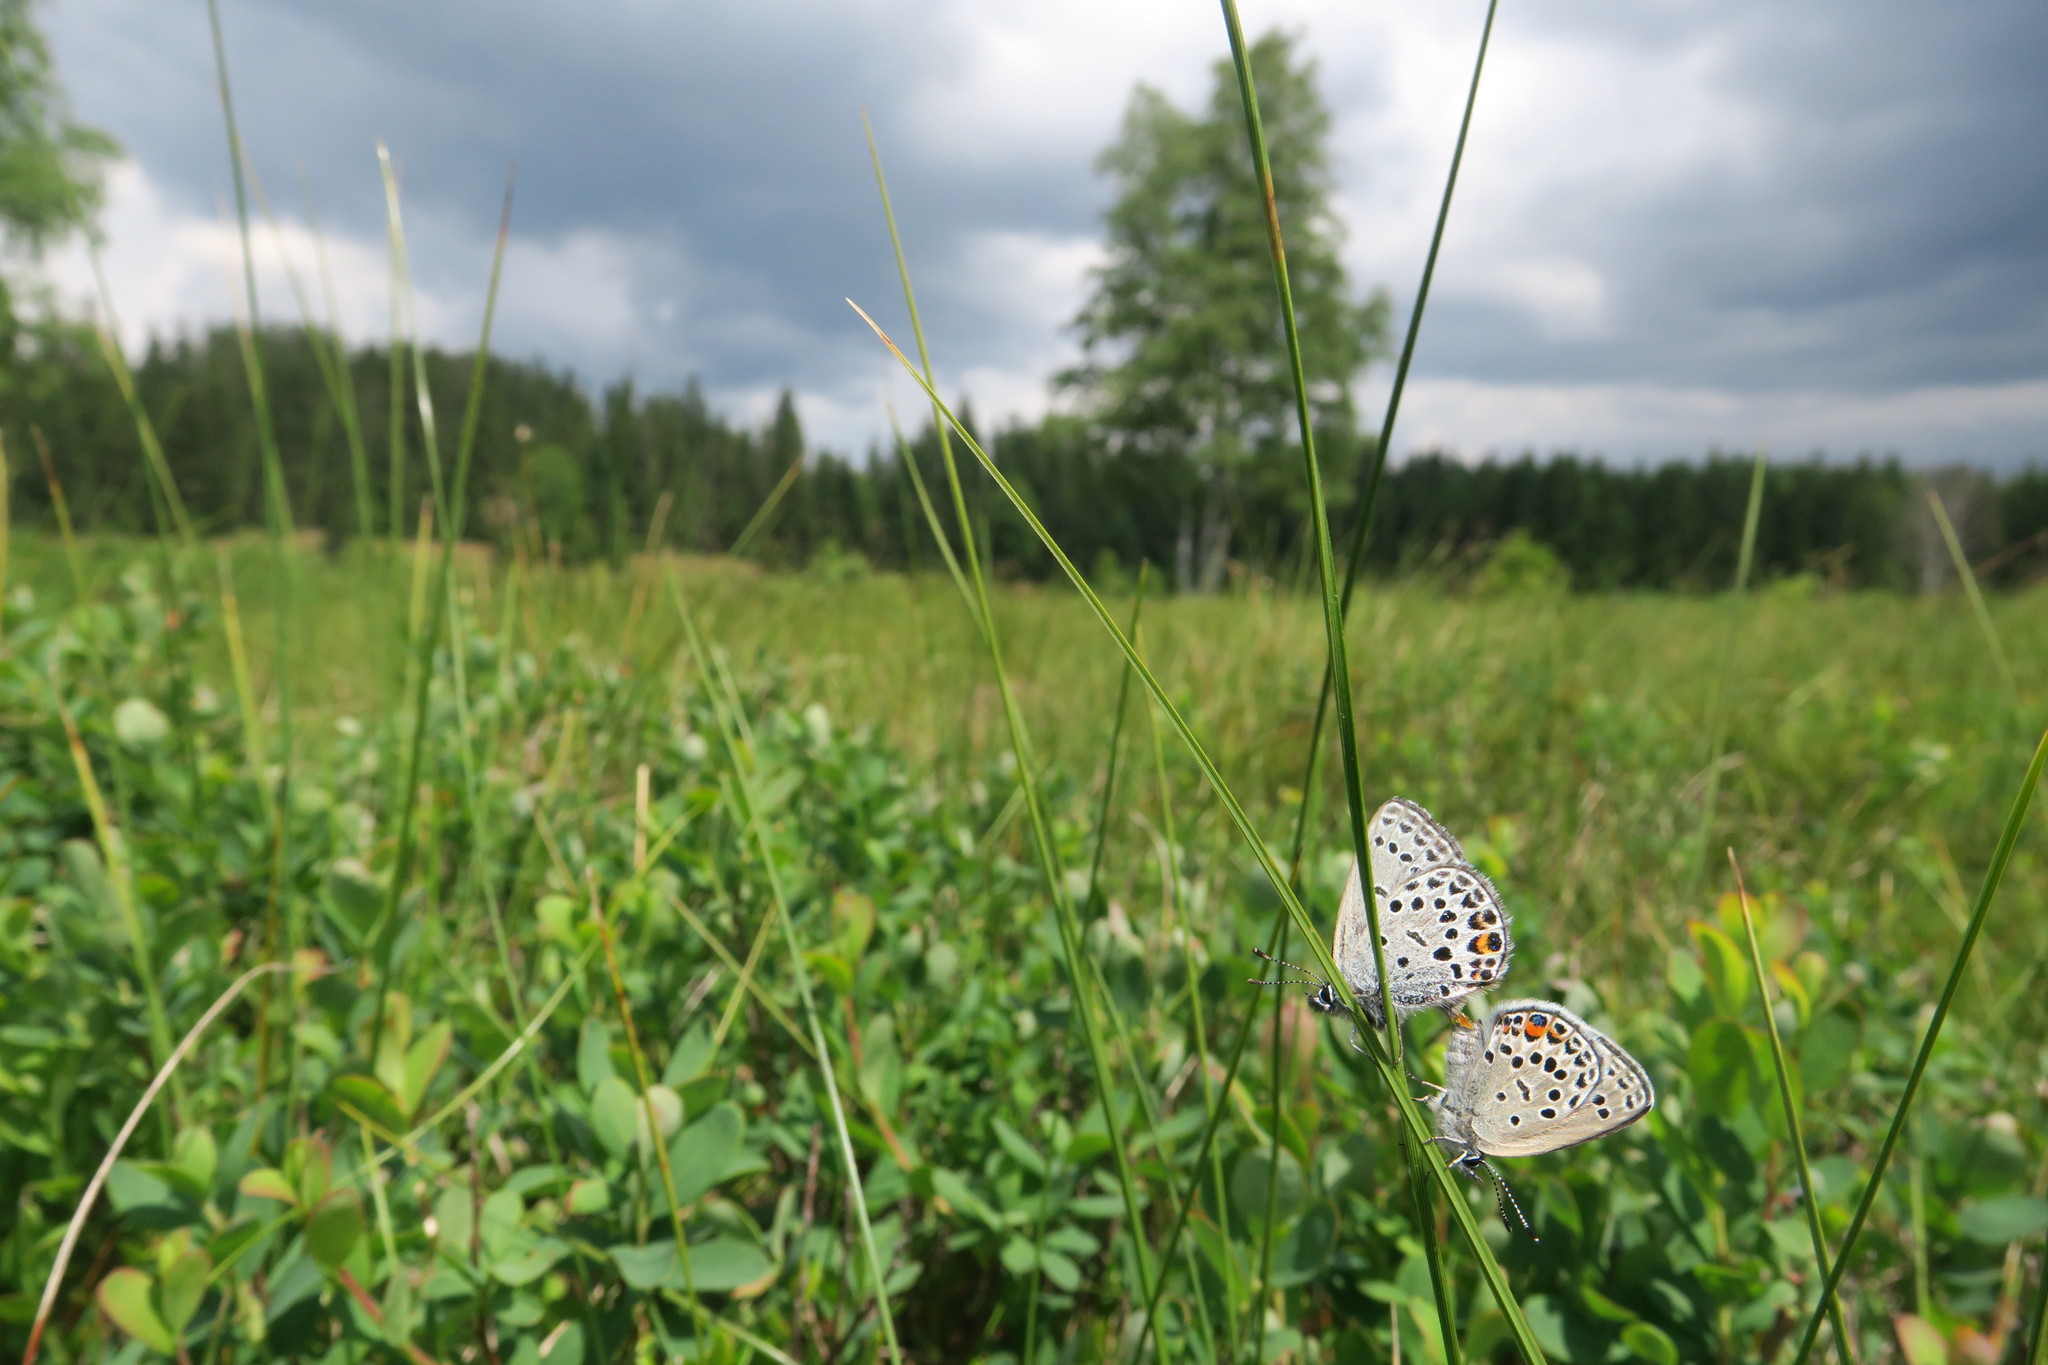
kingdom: Animalia
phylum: Arthropoda
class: Insecta
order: Lepidoptera
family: Lycaenidae
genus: Vacciniina
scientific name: Vacciniina optilete
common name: Cranberry blue
